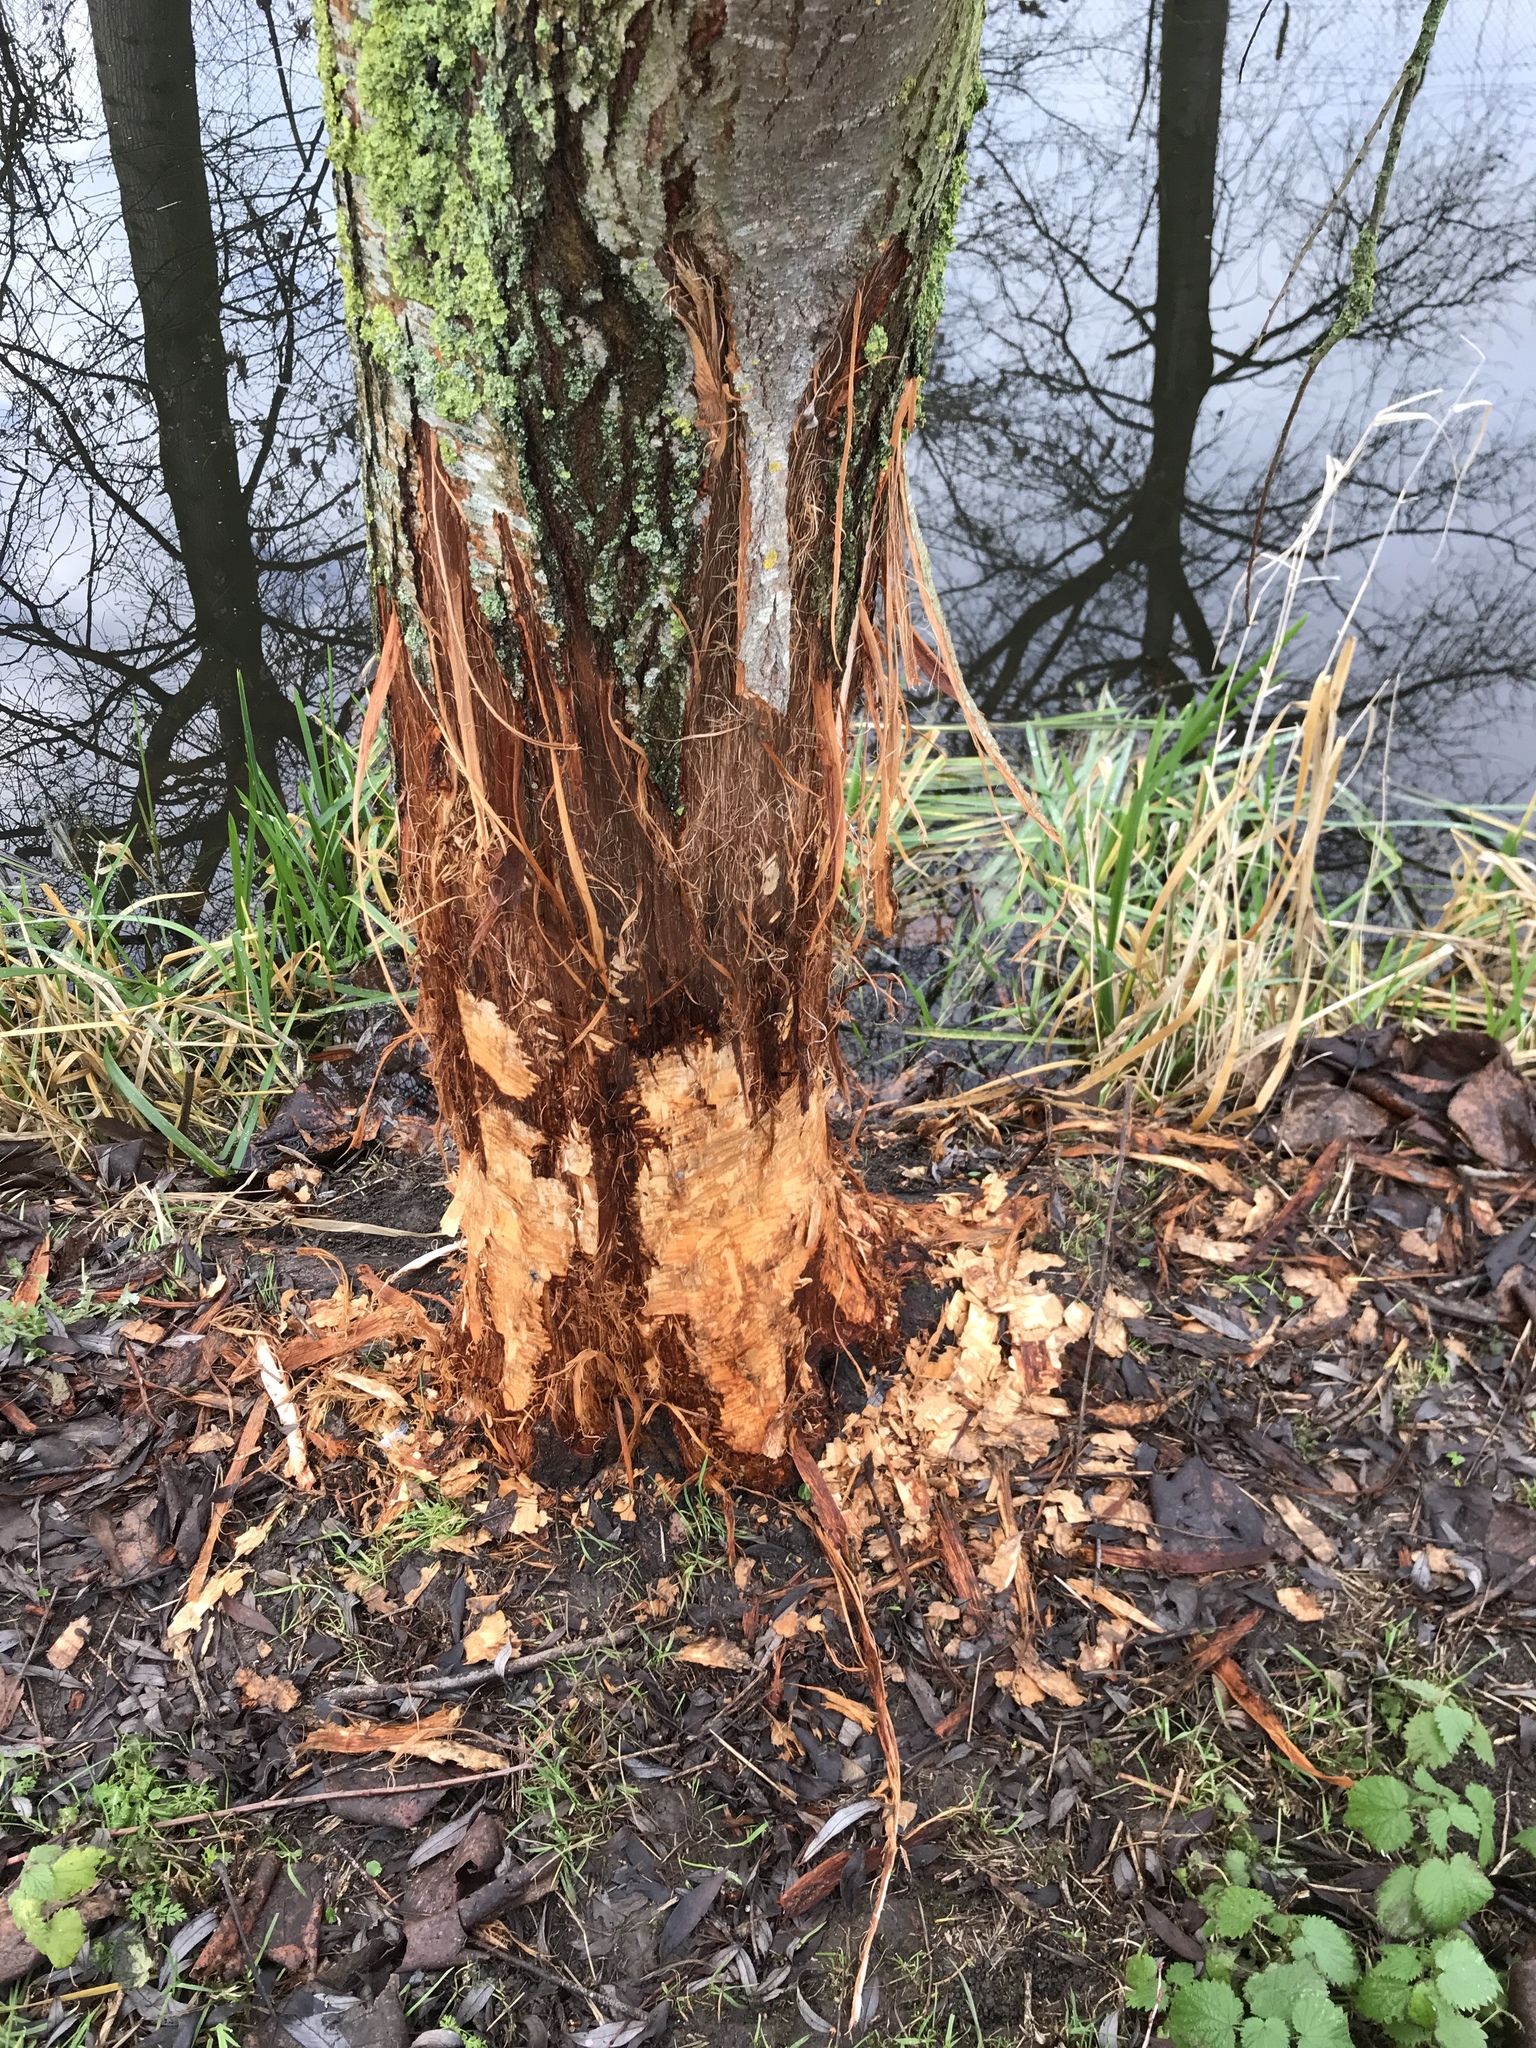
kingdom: Animalia
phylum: Chordata
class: Mammalia
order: Rodentia
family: Castoridae
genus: Castor
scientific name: Castor fiber
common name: Eurasian beaver
